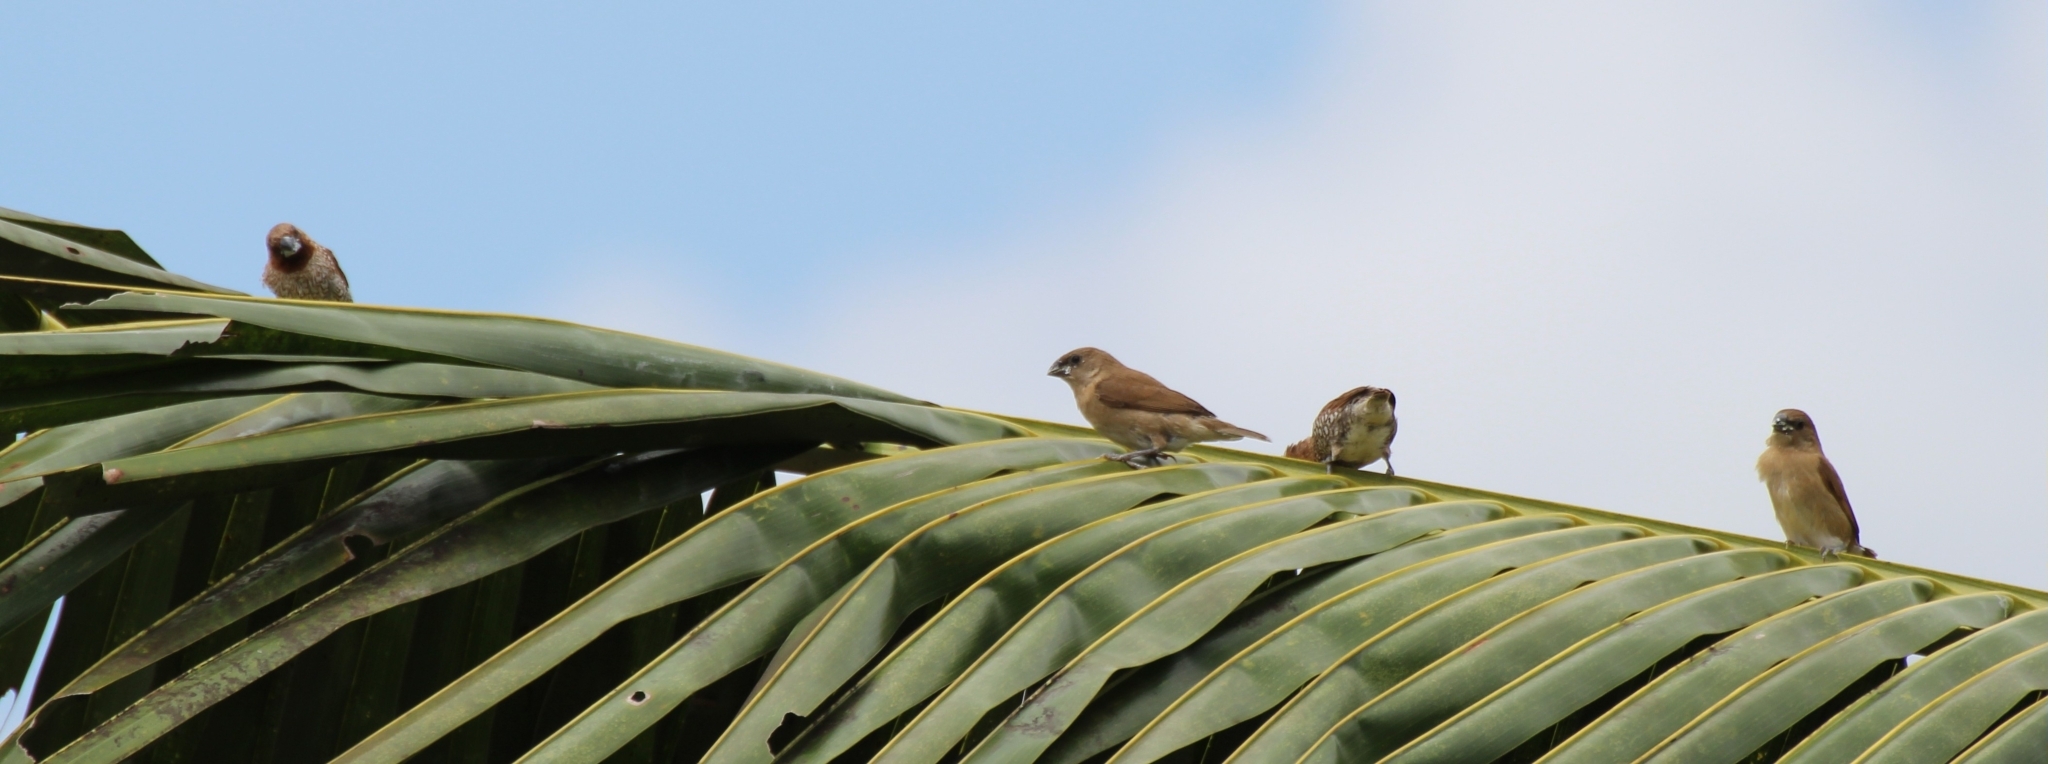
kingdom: Animalia
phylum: Chordata
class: Aves
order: Passeriformes
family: Estrildidae
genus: Lonchura
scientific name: Lonchura punctulata
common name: Scaly-breasted munia
